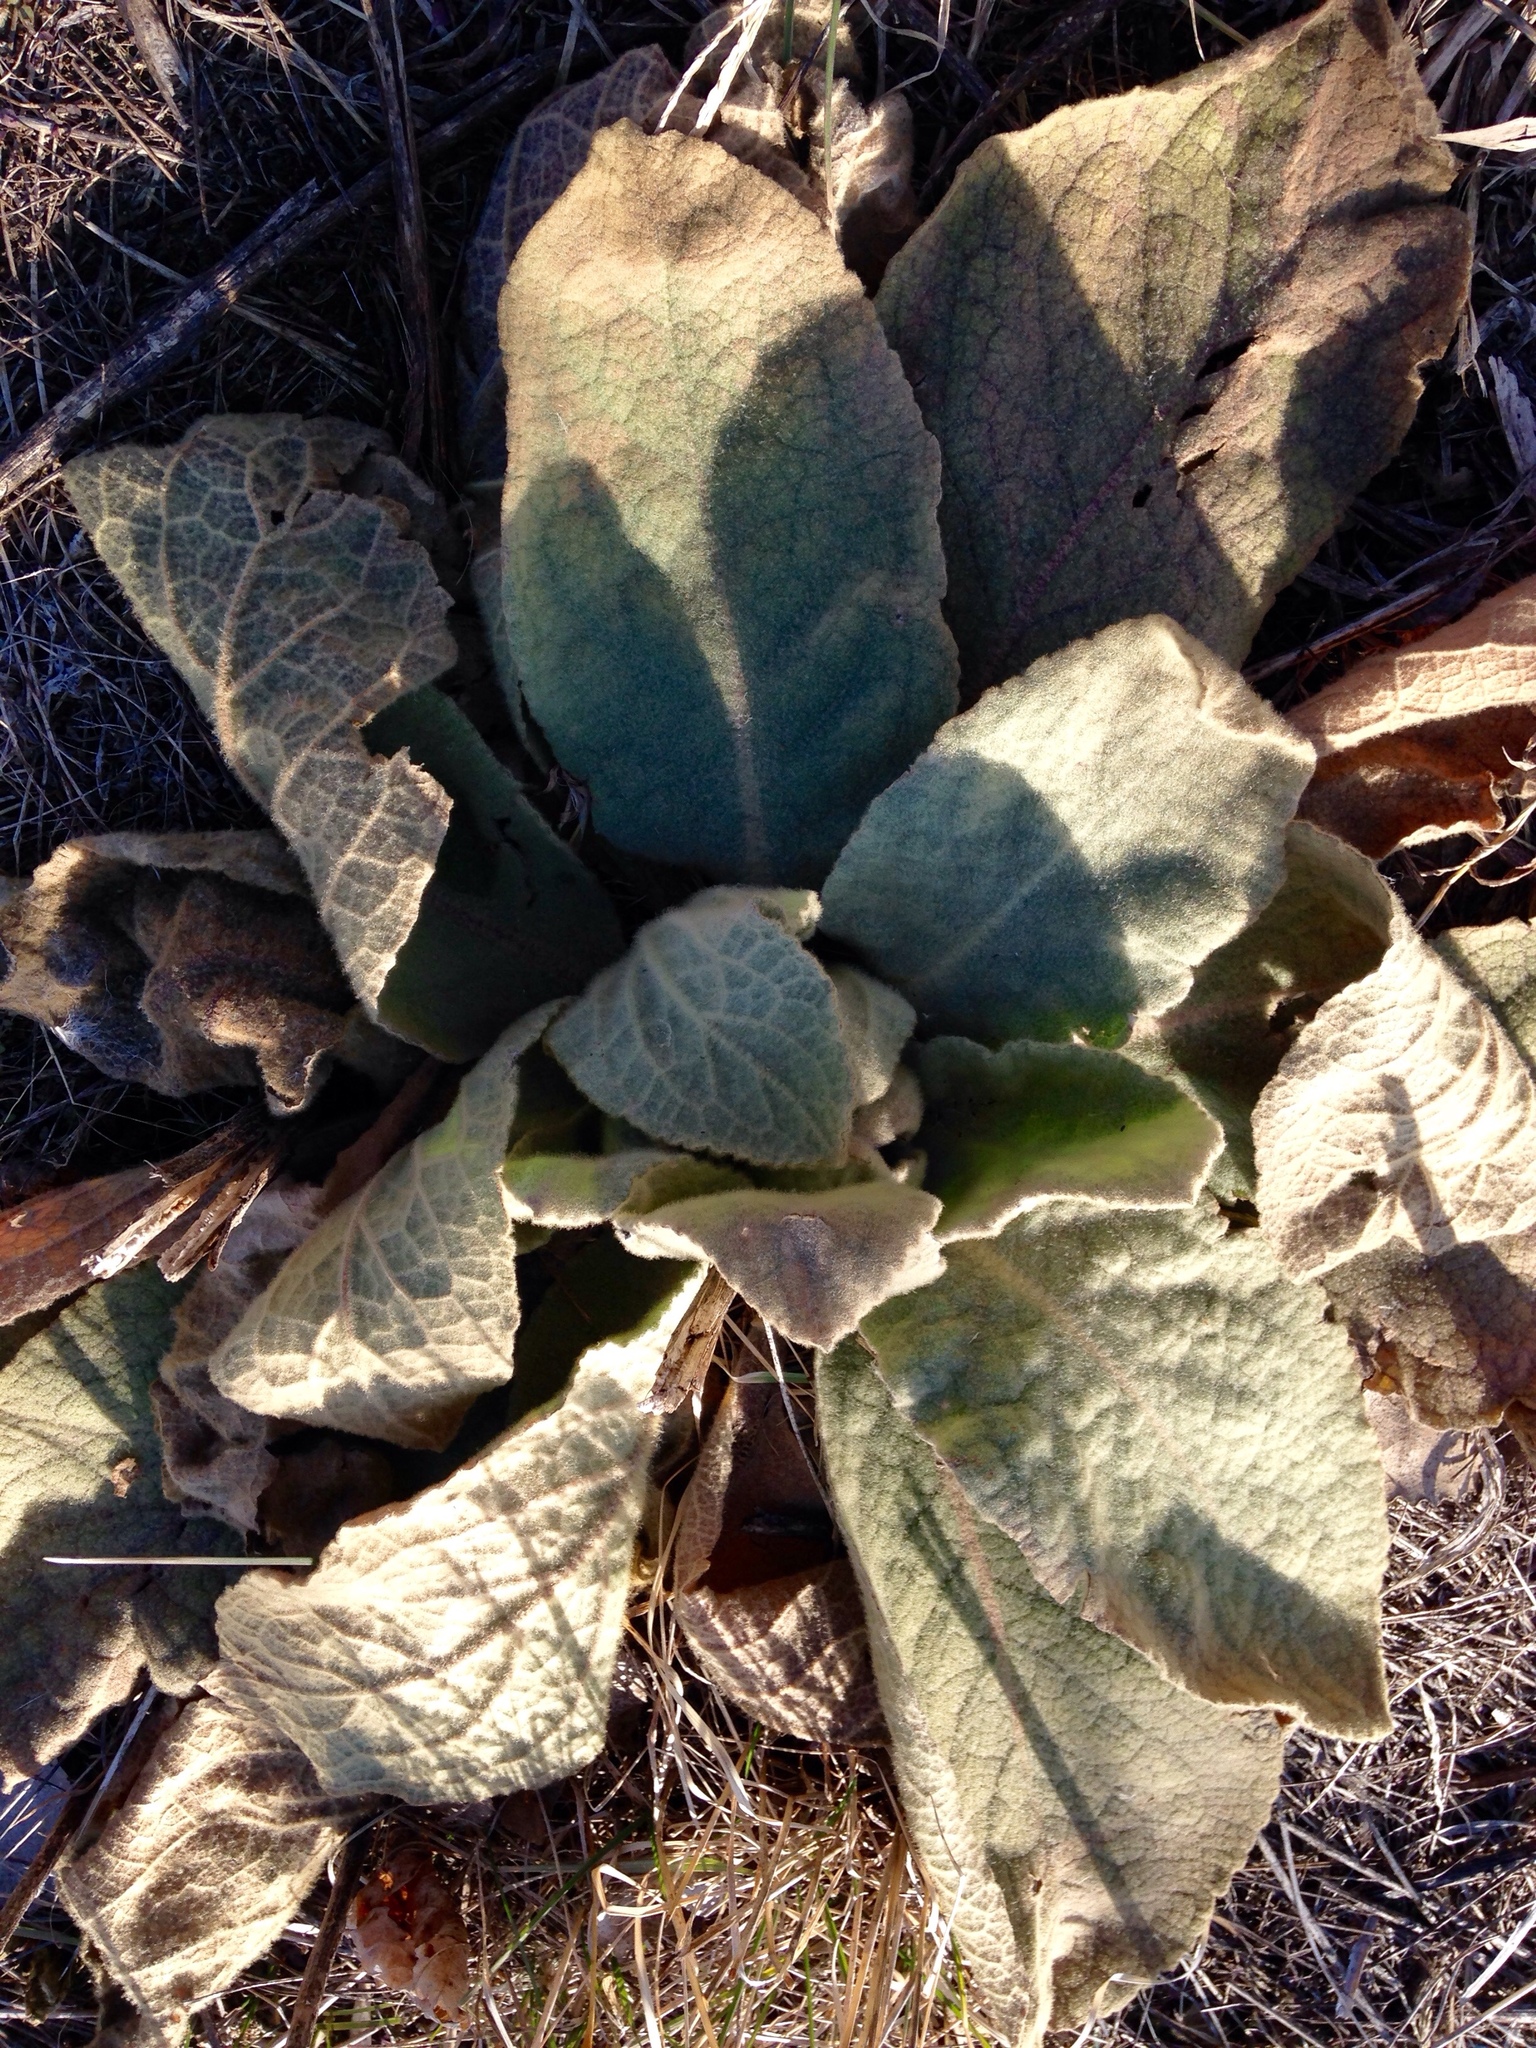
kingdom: Plantae
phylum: Tracheophyta
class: Magnoliopsida
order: Lamiales
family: Scrophulariaceae
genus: Verbascum
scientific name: Verbascum thapsus
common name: Common mullein
